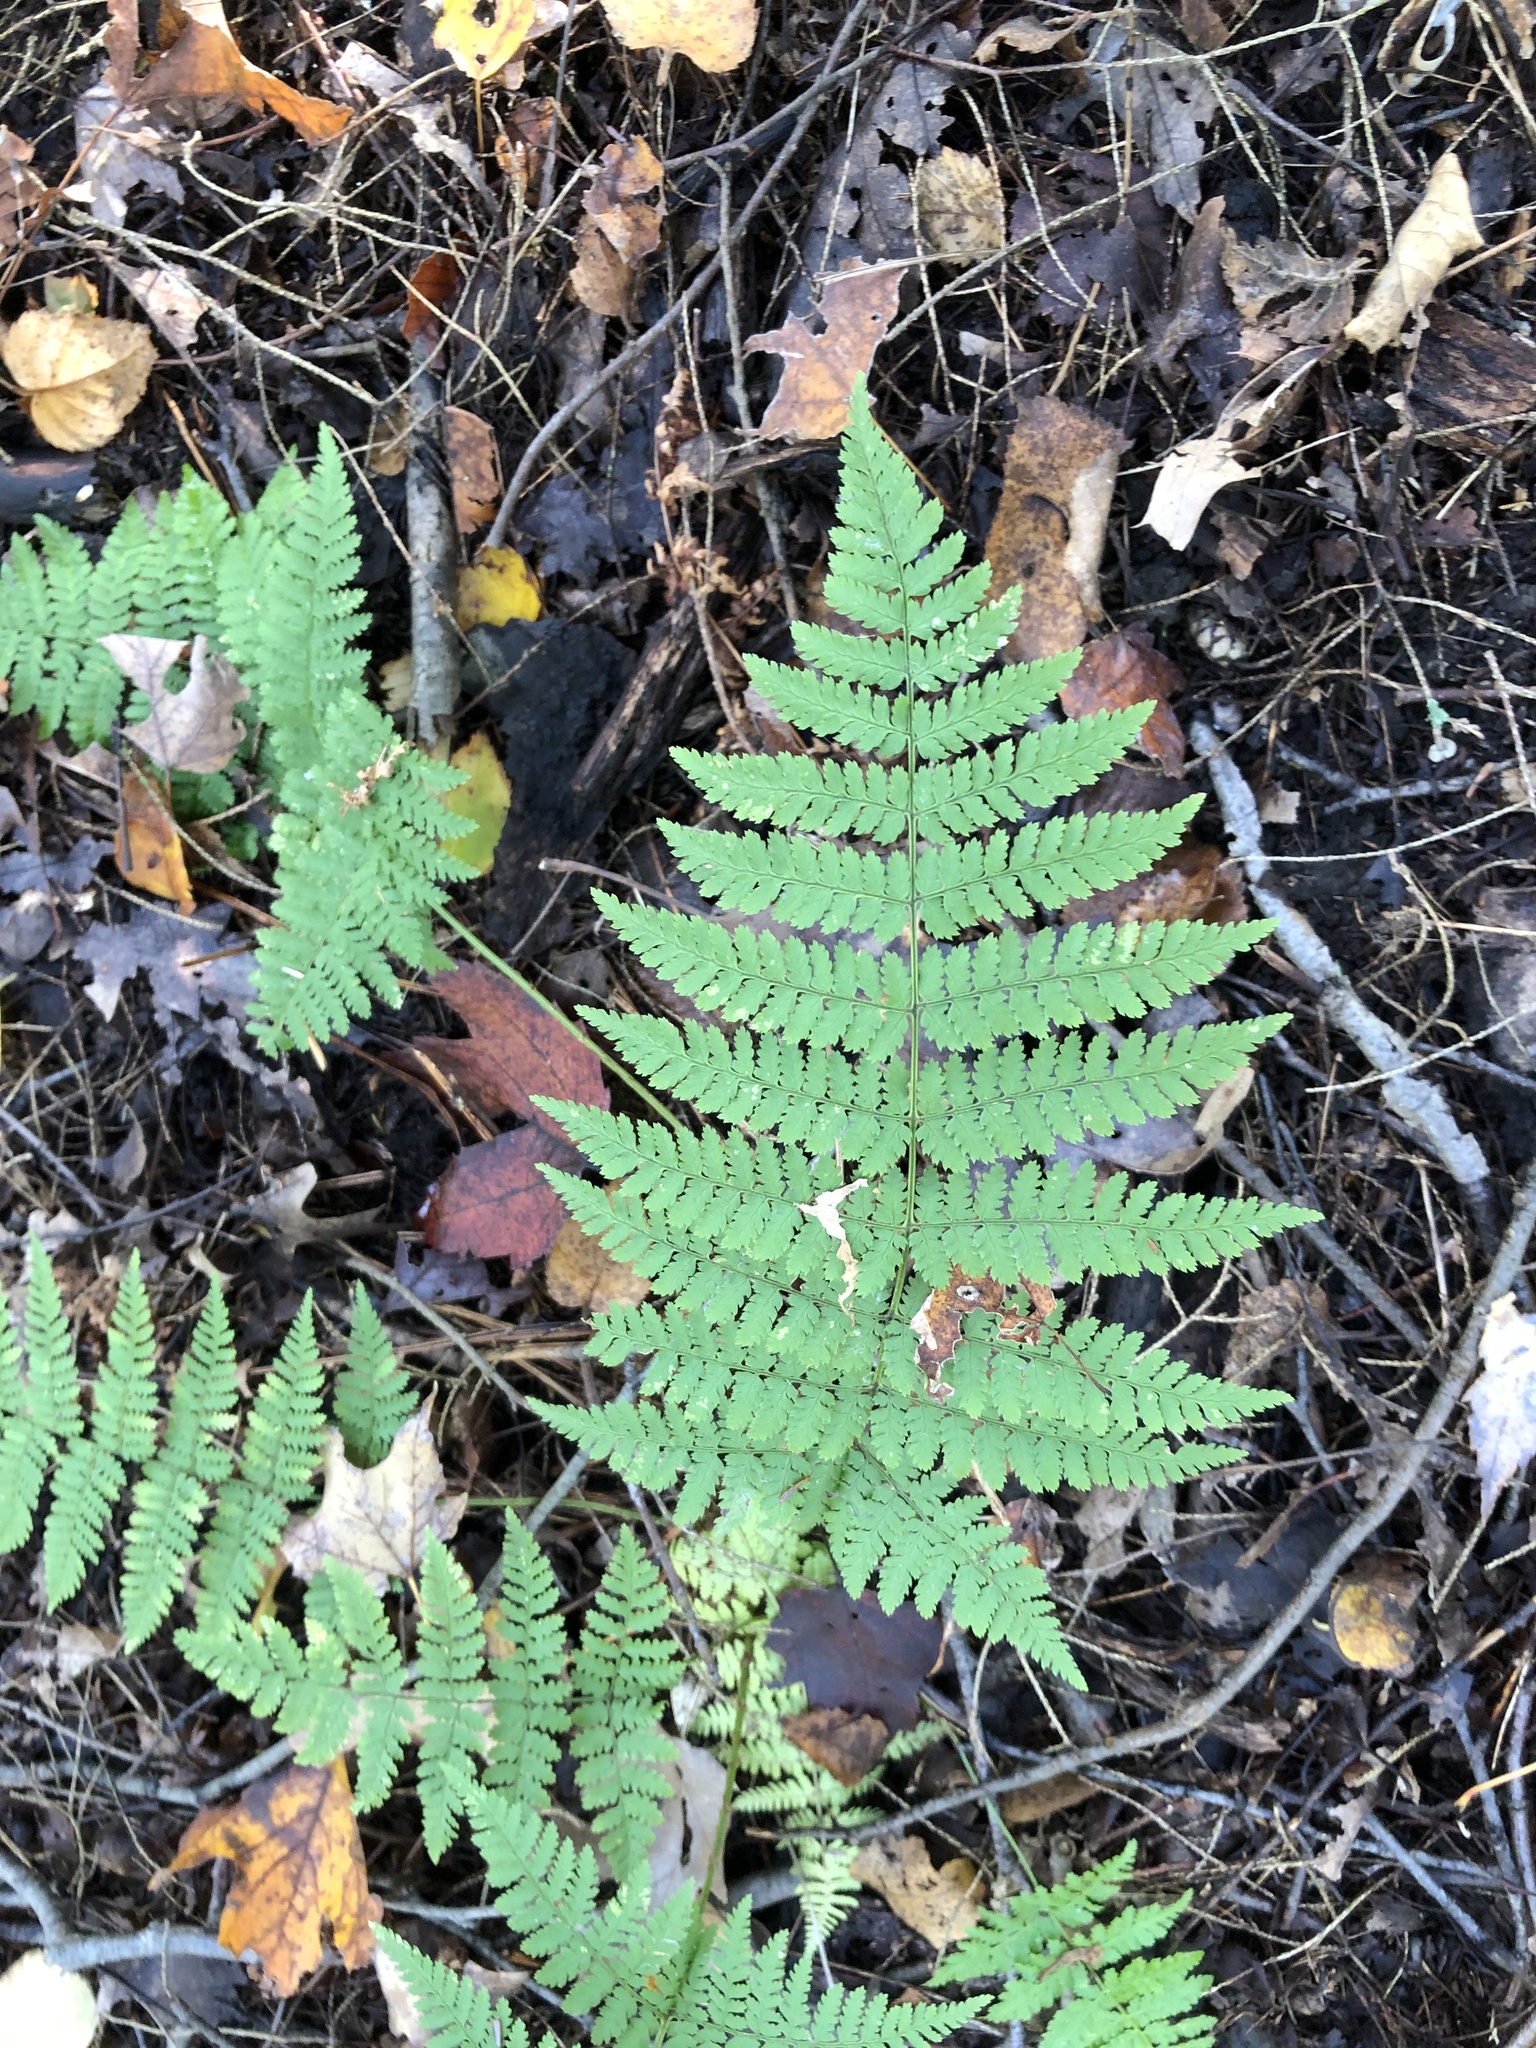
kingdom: Plantae
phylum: Tracheophyta
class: Polypodiopsida
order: Polypodiales
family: Dryopteridaceae
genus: Dryopteris
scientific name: Dryopteris intermedia
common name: Evergreen wood fern
